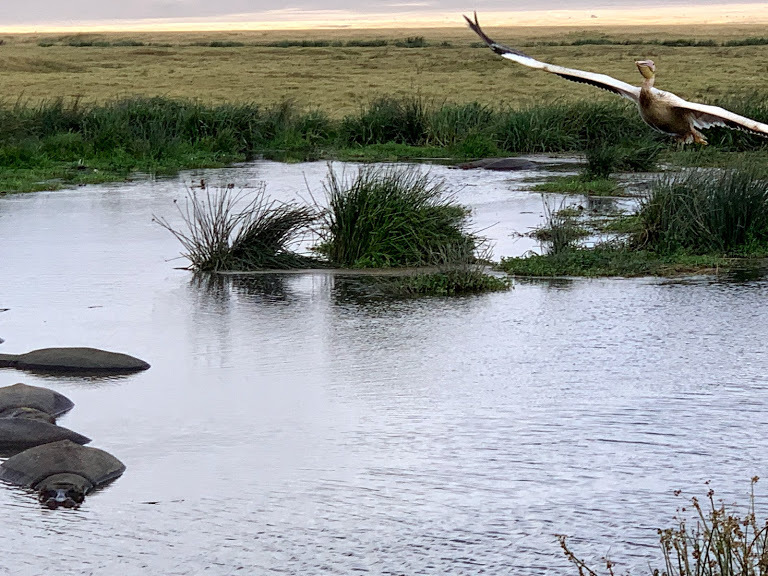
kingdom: Animalia
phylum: Chordata
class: Aves
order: Pelecaniformes
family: Pelecanidae
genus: Pelecanus
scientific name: Pelecanus onocrotalus
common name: Great white pelican
